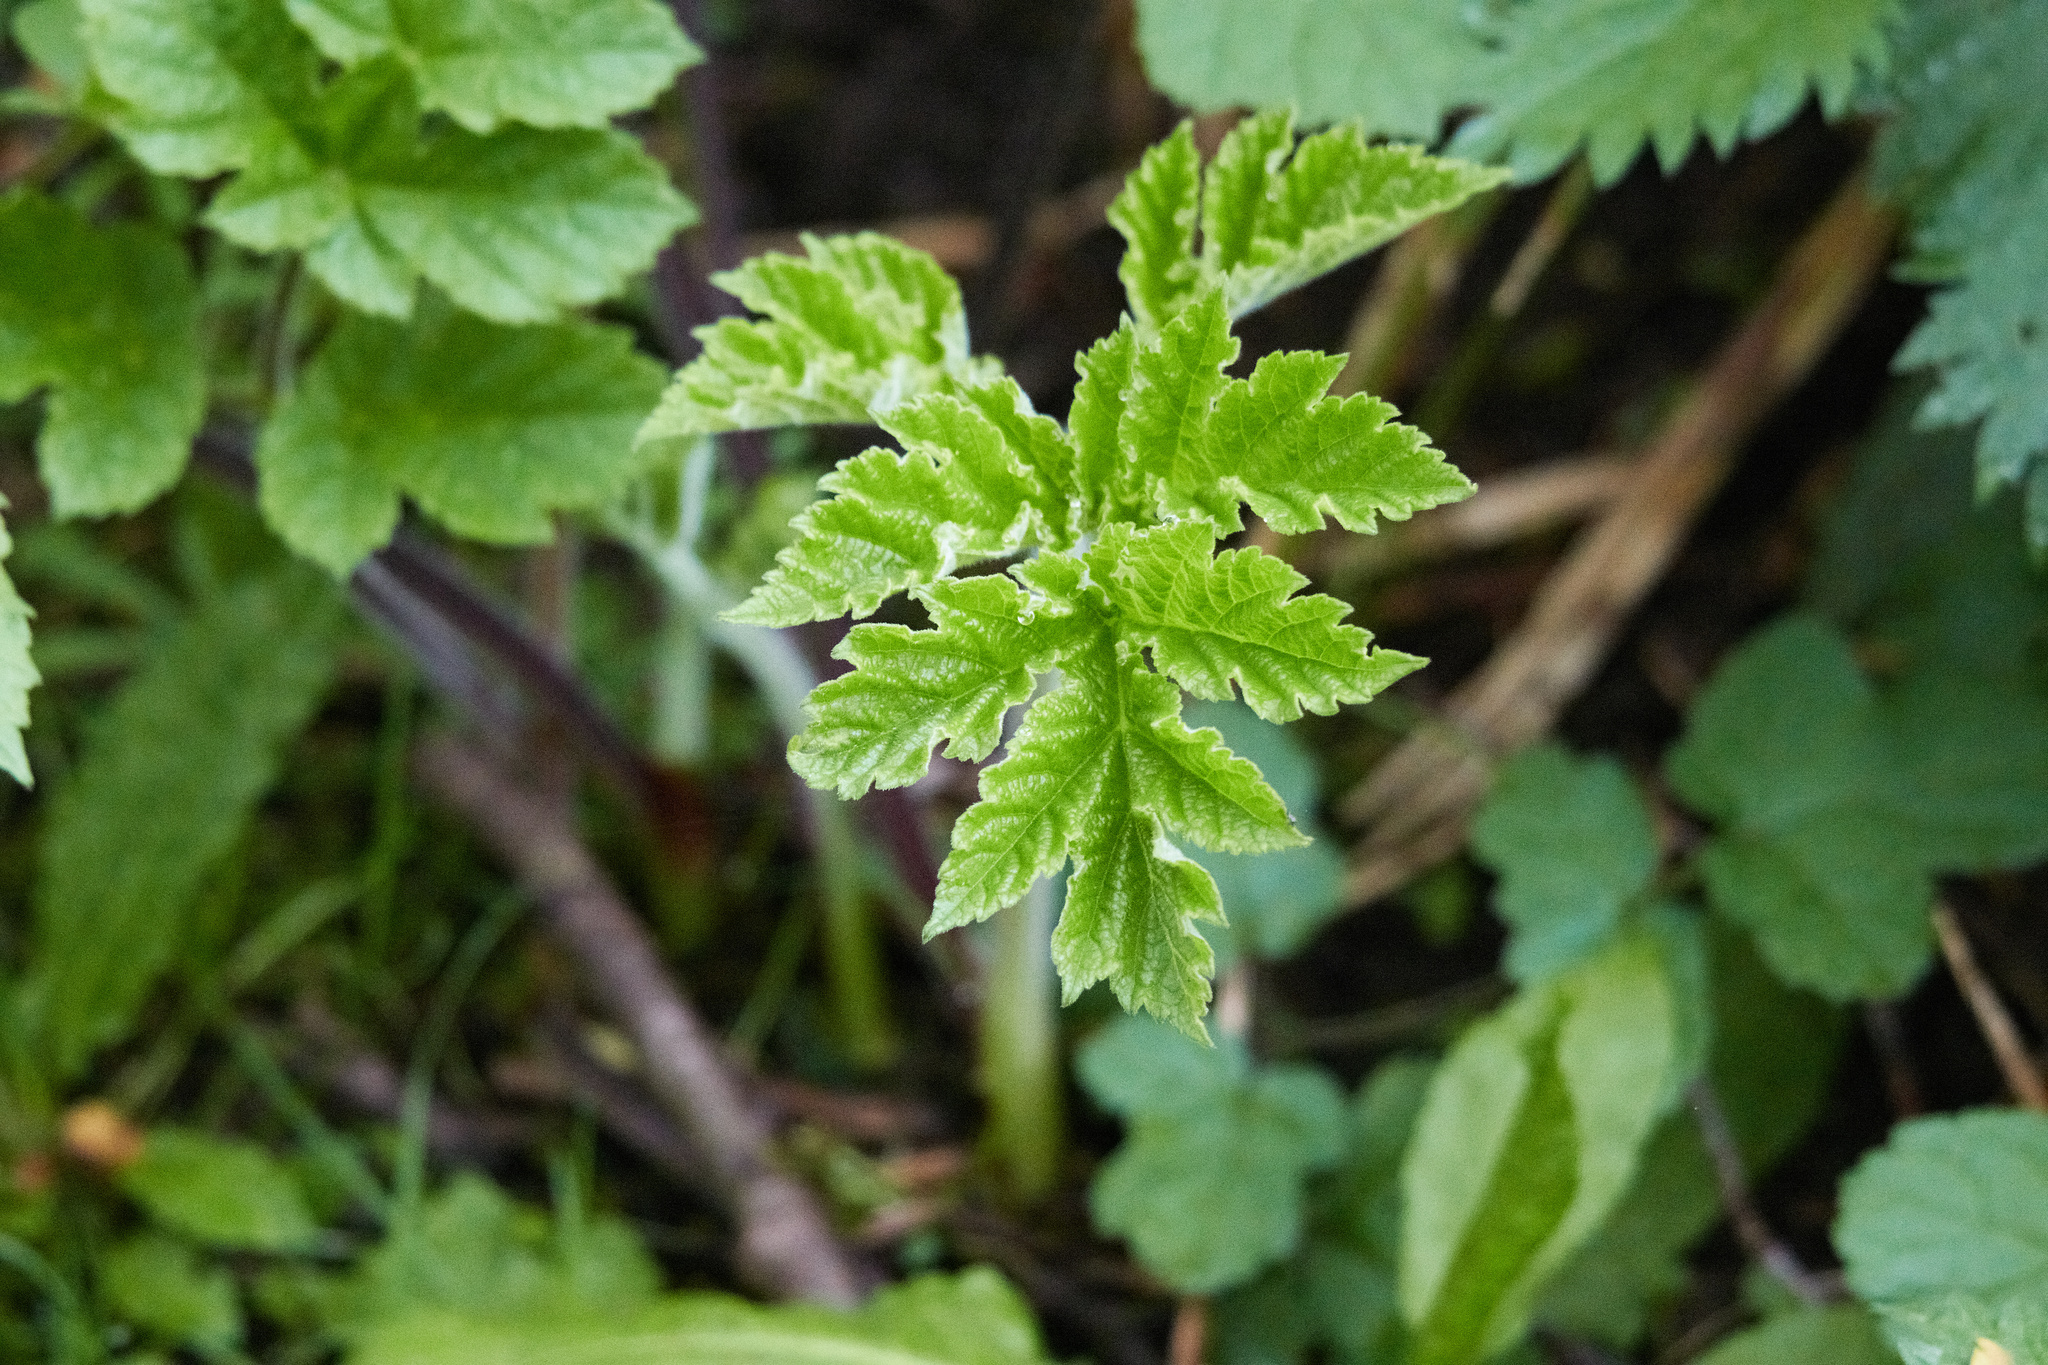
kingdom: Plantae
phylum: Tracheophyta
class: Magnoliopsida
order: Apiales
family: Apiaceae
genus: Heracleum
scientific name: Heracleum sphondylium
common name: Hogweed
